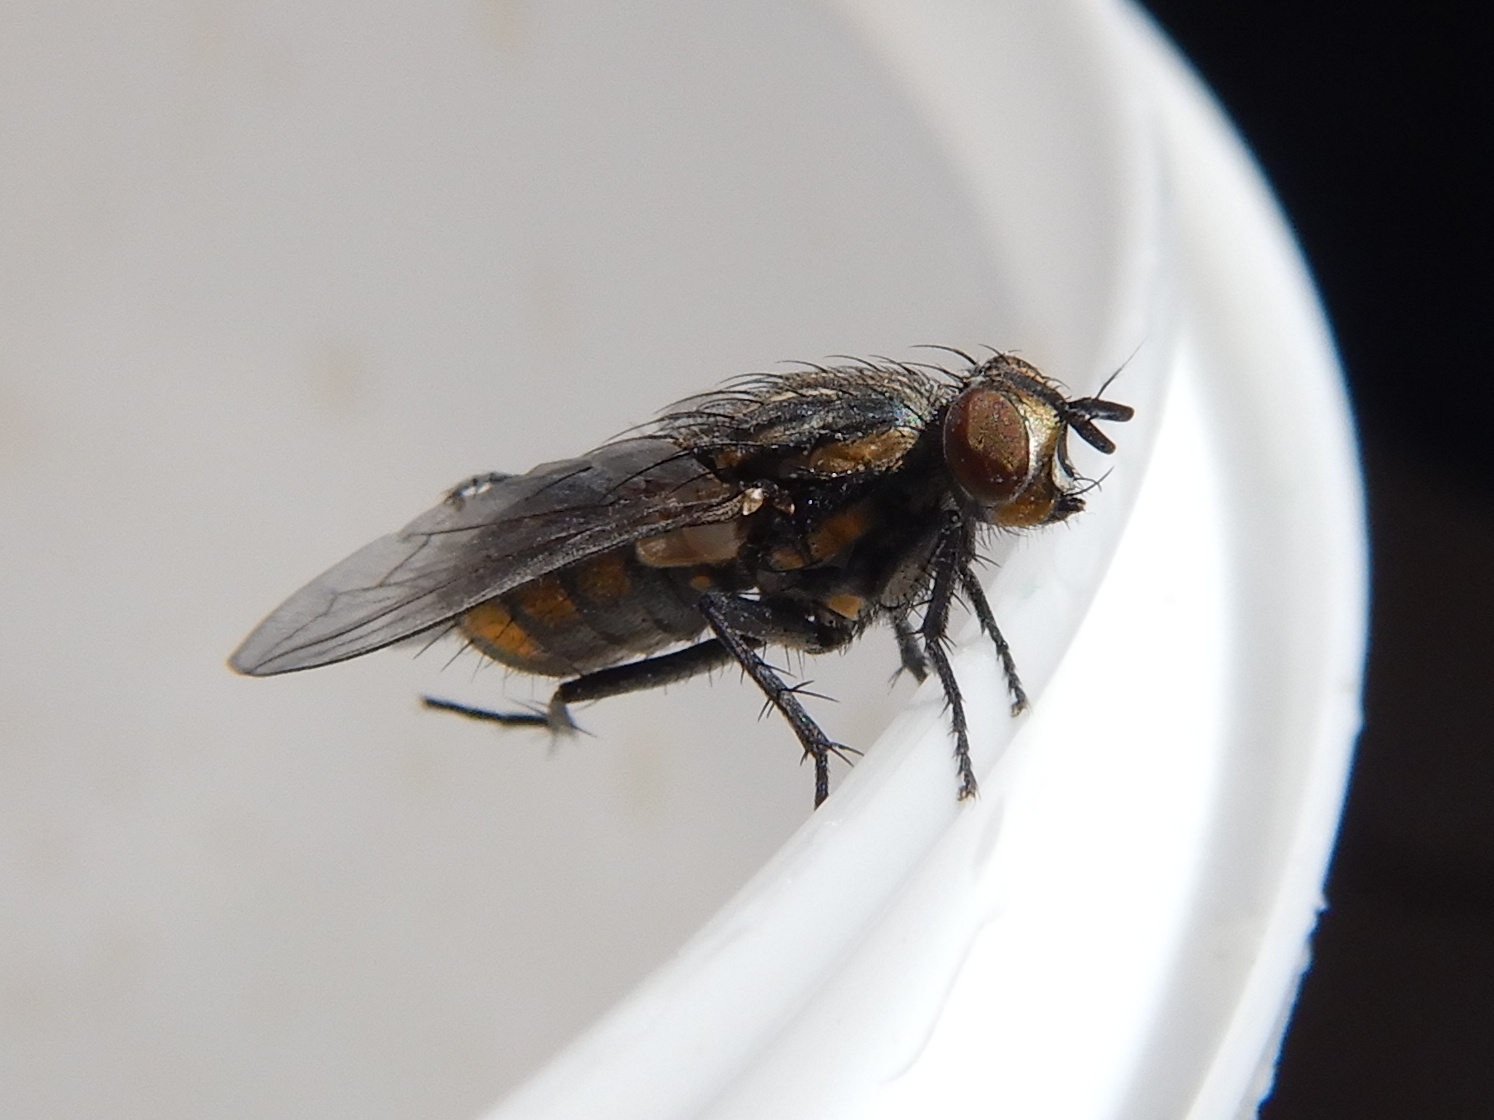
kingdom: Animalia
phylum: Arthropoda
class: Insecta
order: Diptera
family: Sarcophagidae
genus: Oxysarcodexia
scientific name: Oxysarcodexia varia
